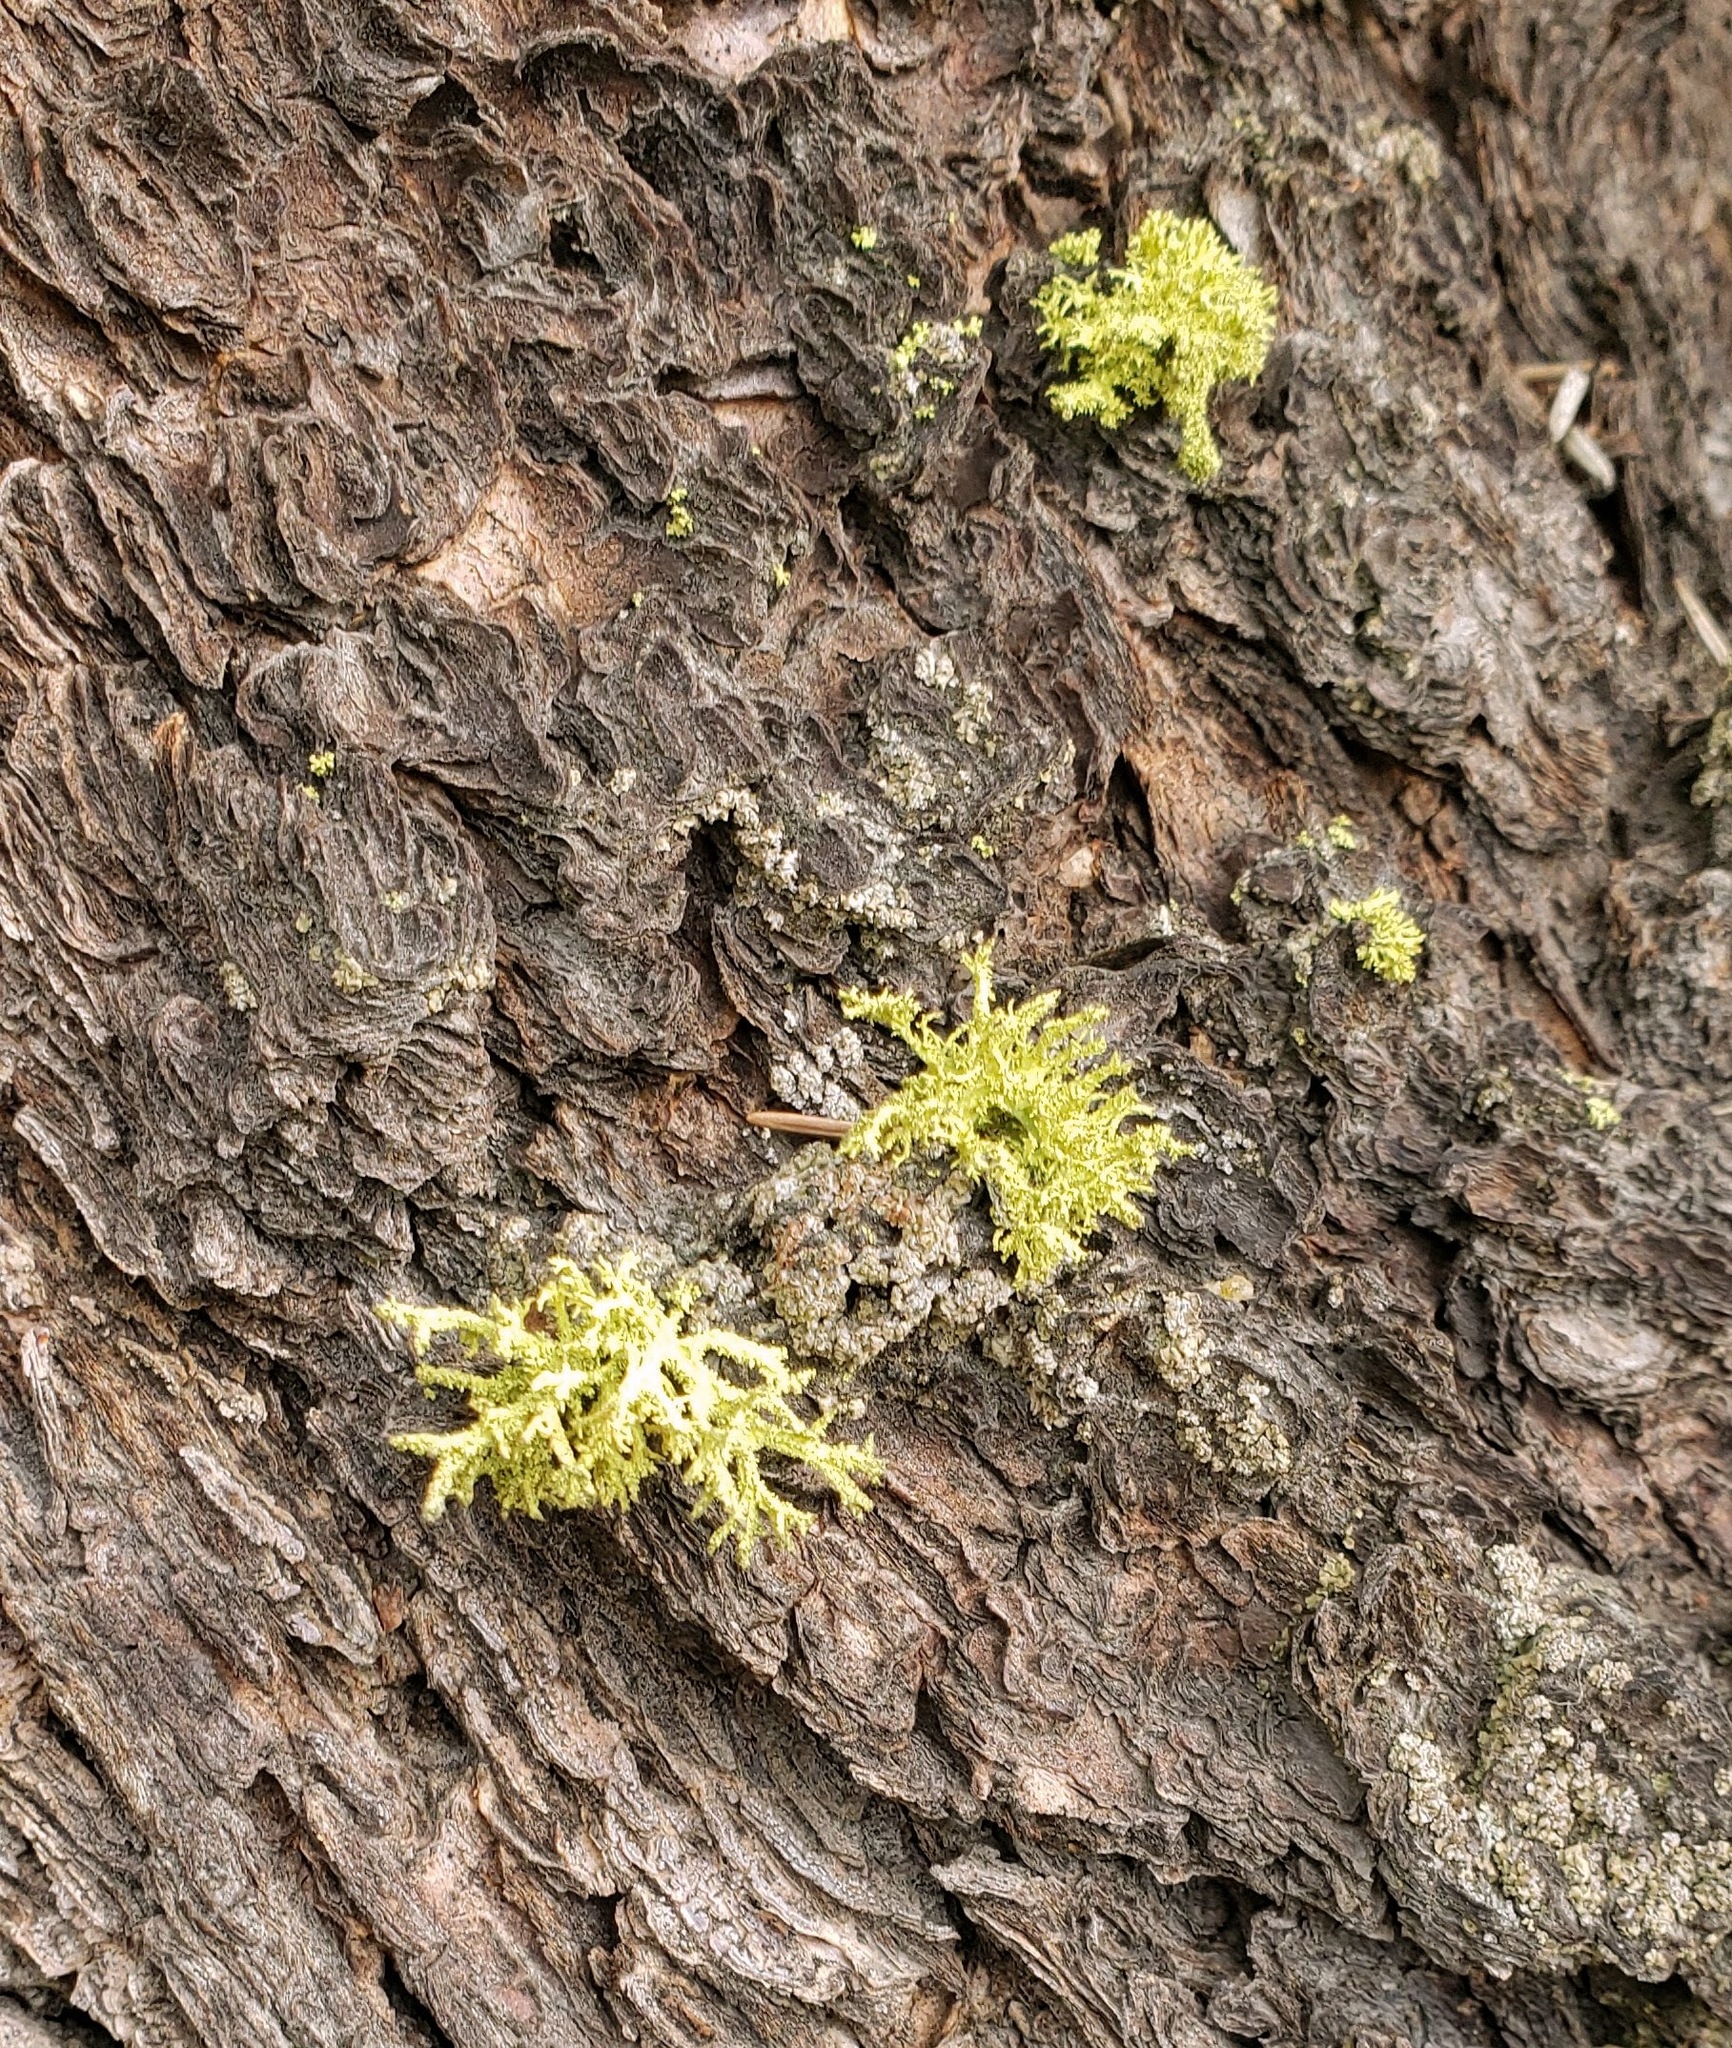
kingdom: Fungi
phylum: Ascomycota
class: Lecanoromycetes
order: Lecanorales
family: Parmeliaceae
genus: Letharia
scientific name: Letharia vulpina
